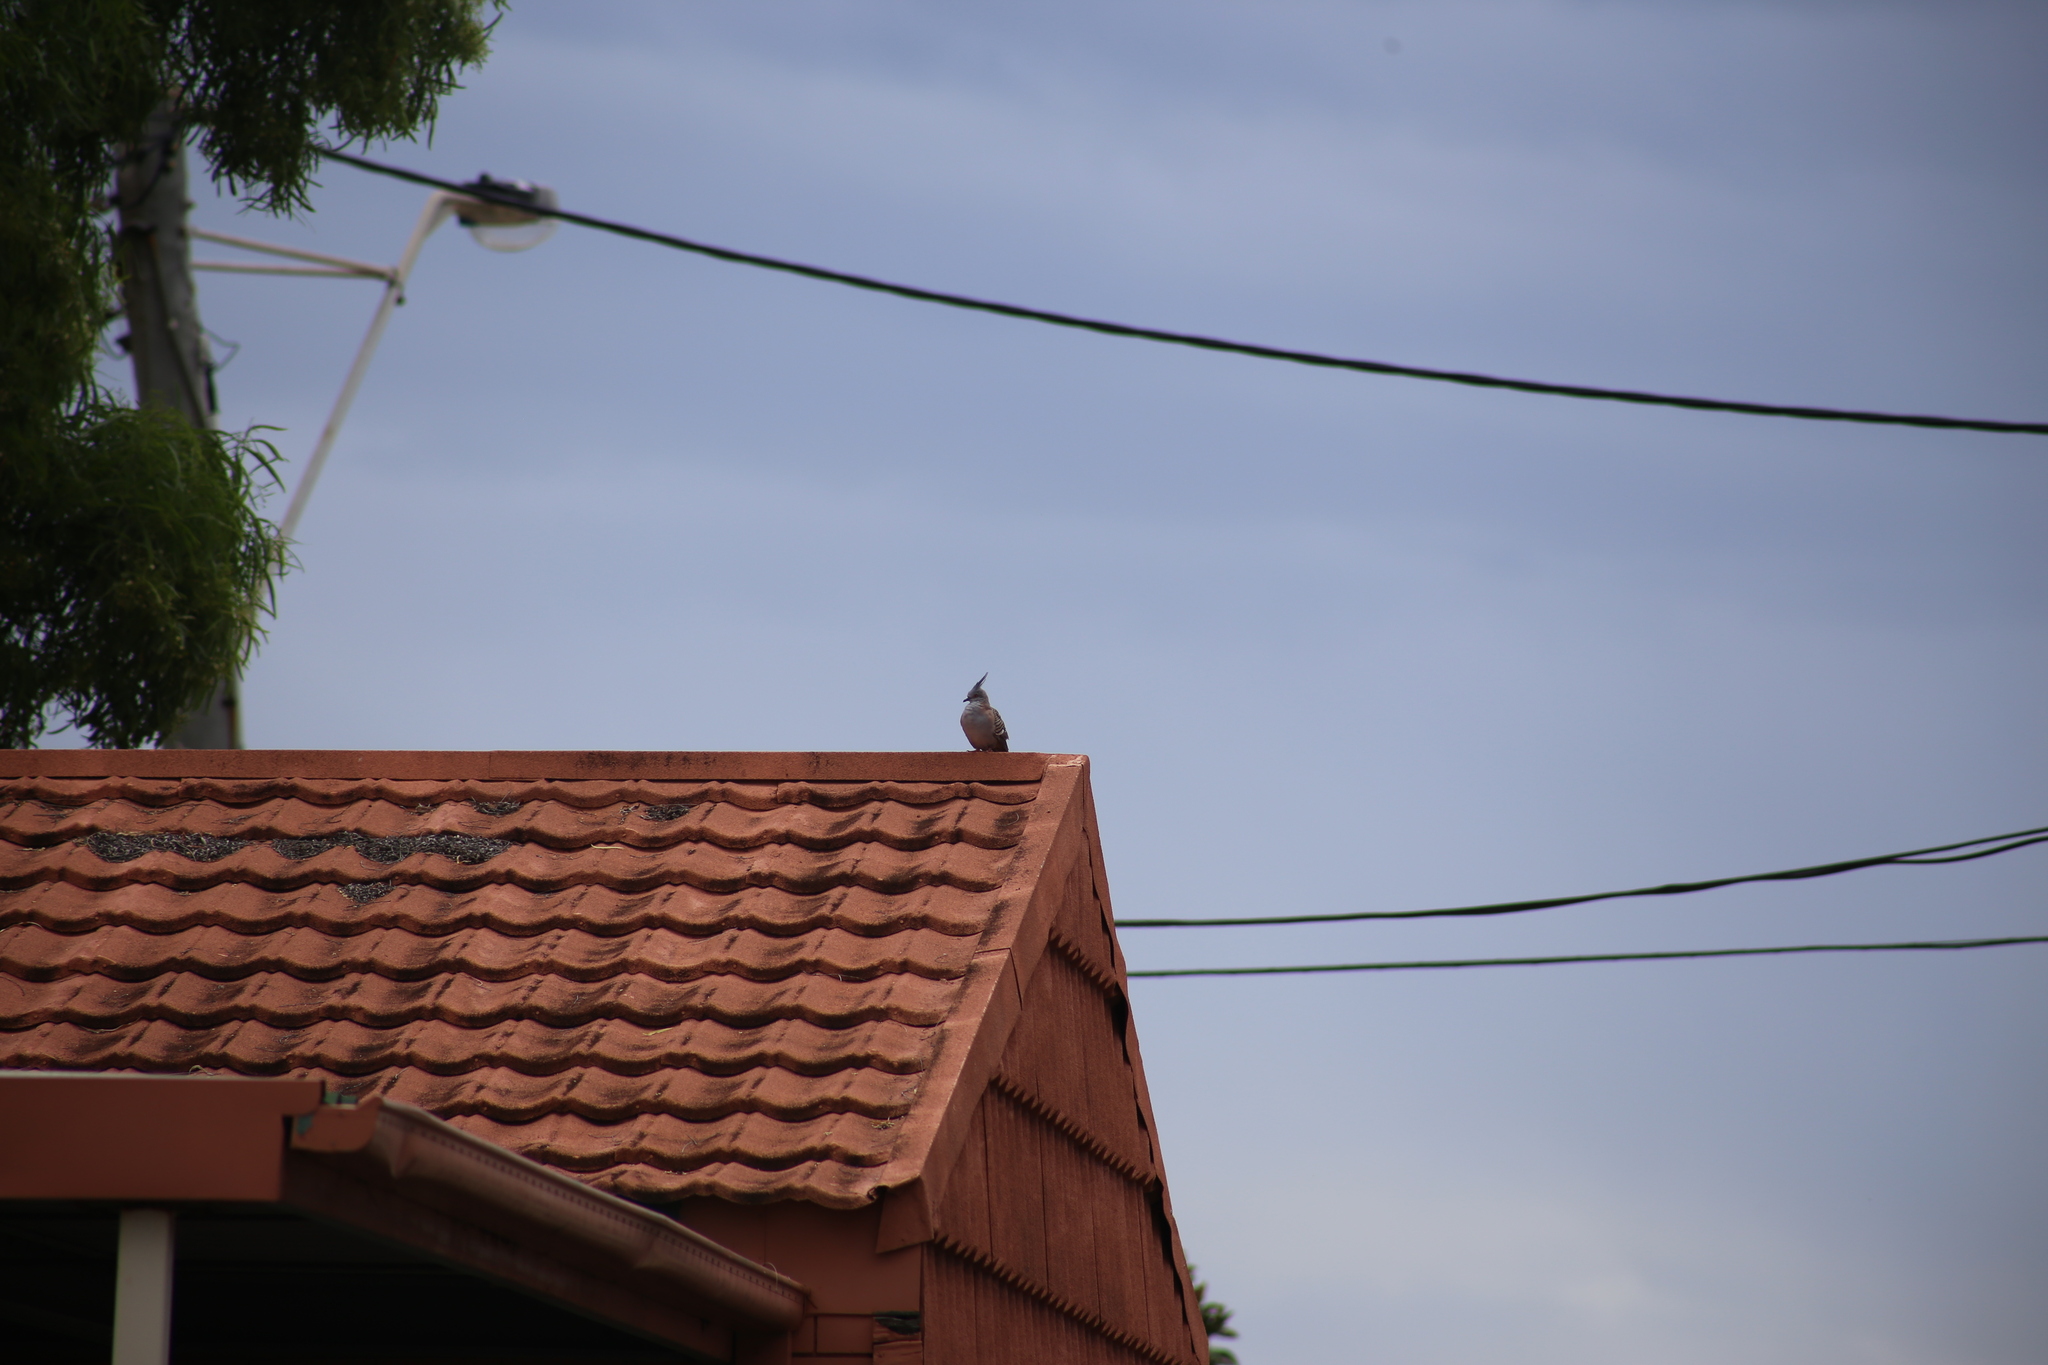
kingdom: Animalia
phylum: Chordata
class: Aves
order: Columbiformes
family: Columbidae
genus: Ocyphaps
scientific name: Ocyphaps lophotes
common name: Crested pigeon
